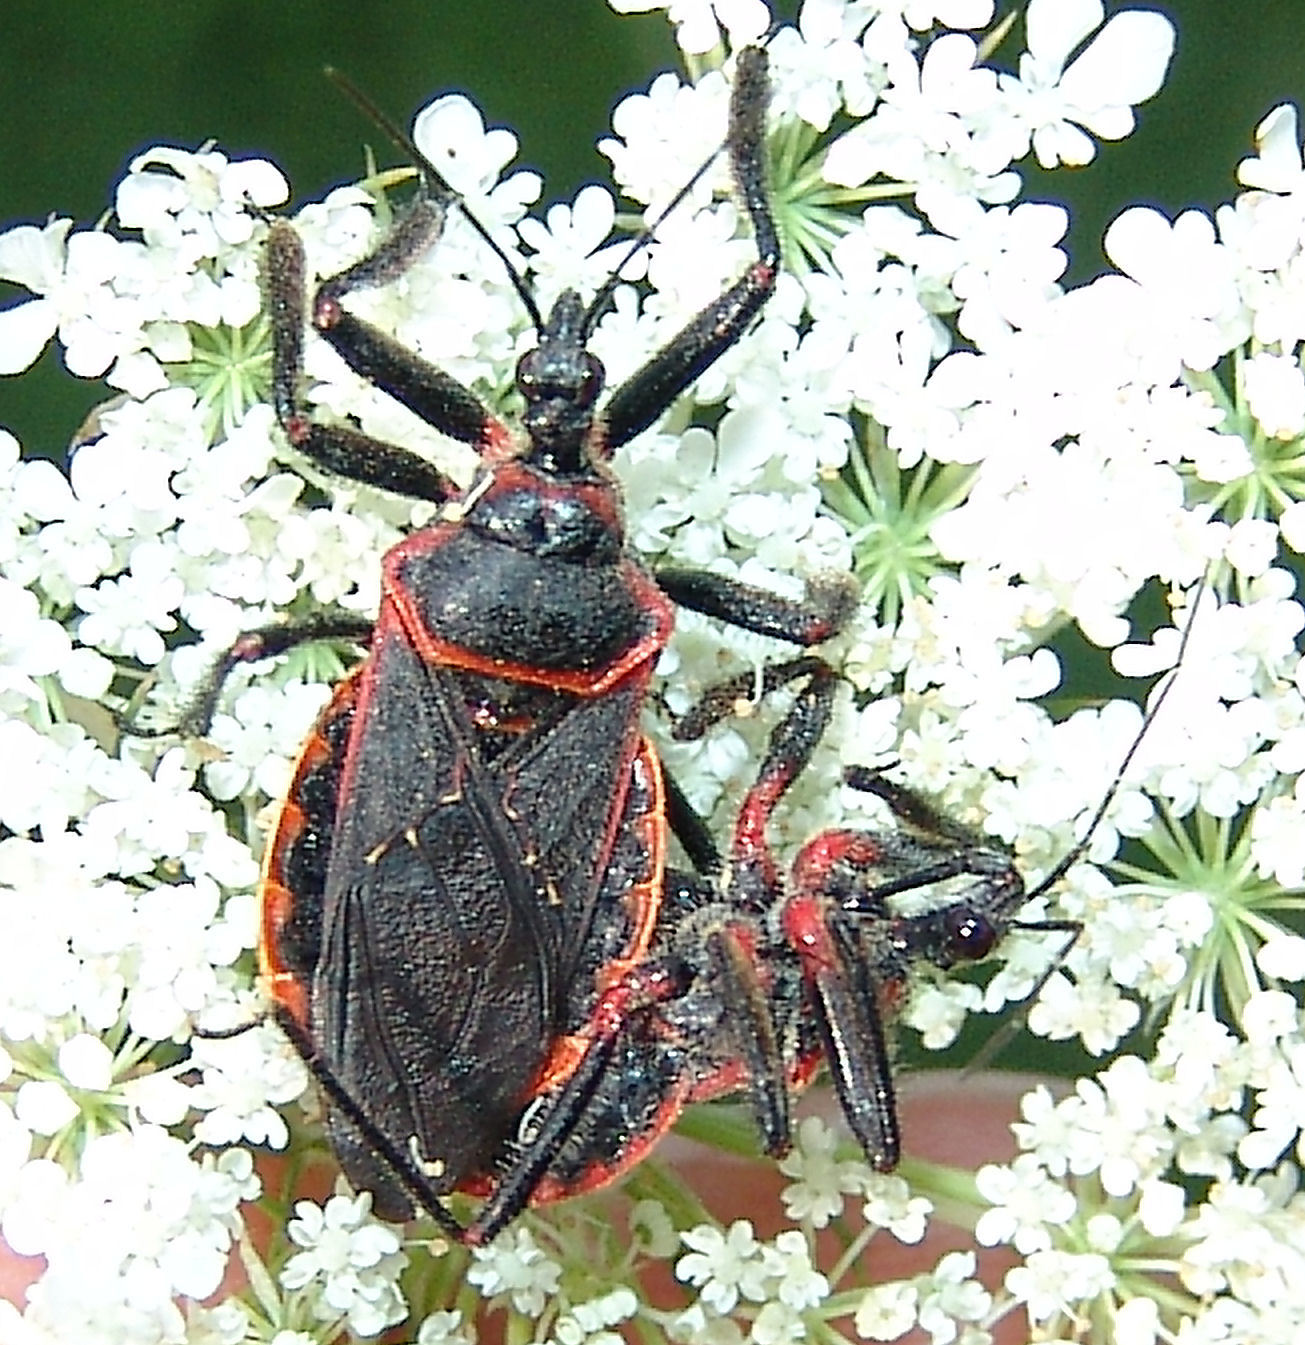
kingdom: Animalia
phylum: Arthropoda
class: Insecta
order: Hemiptera
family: Reduviidae
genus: Apiomerus
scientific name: Apiomerus crassipes
